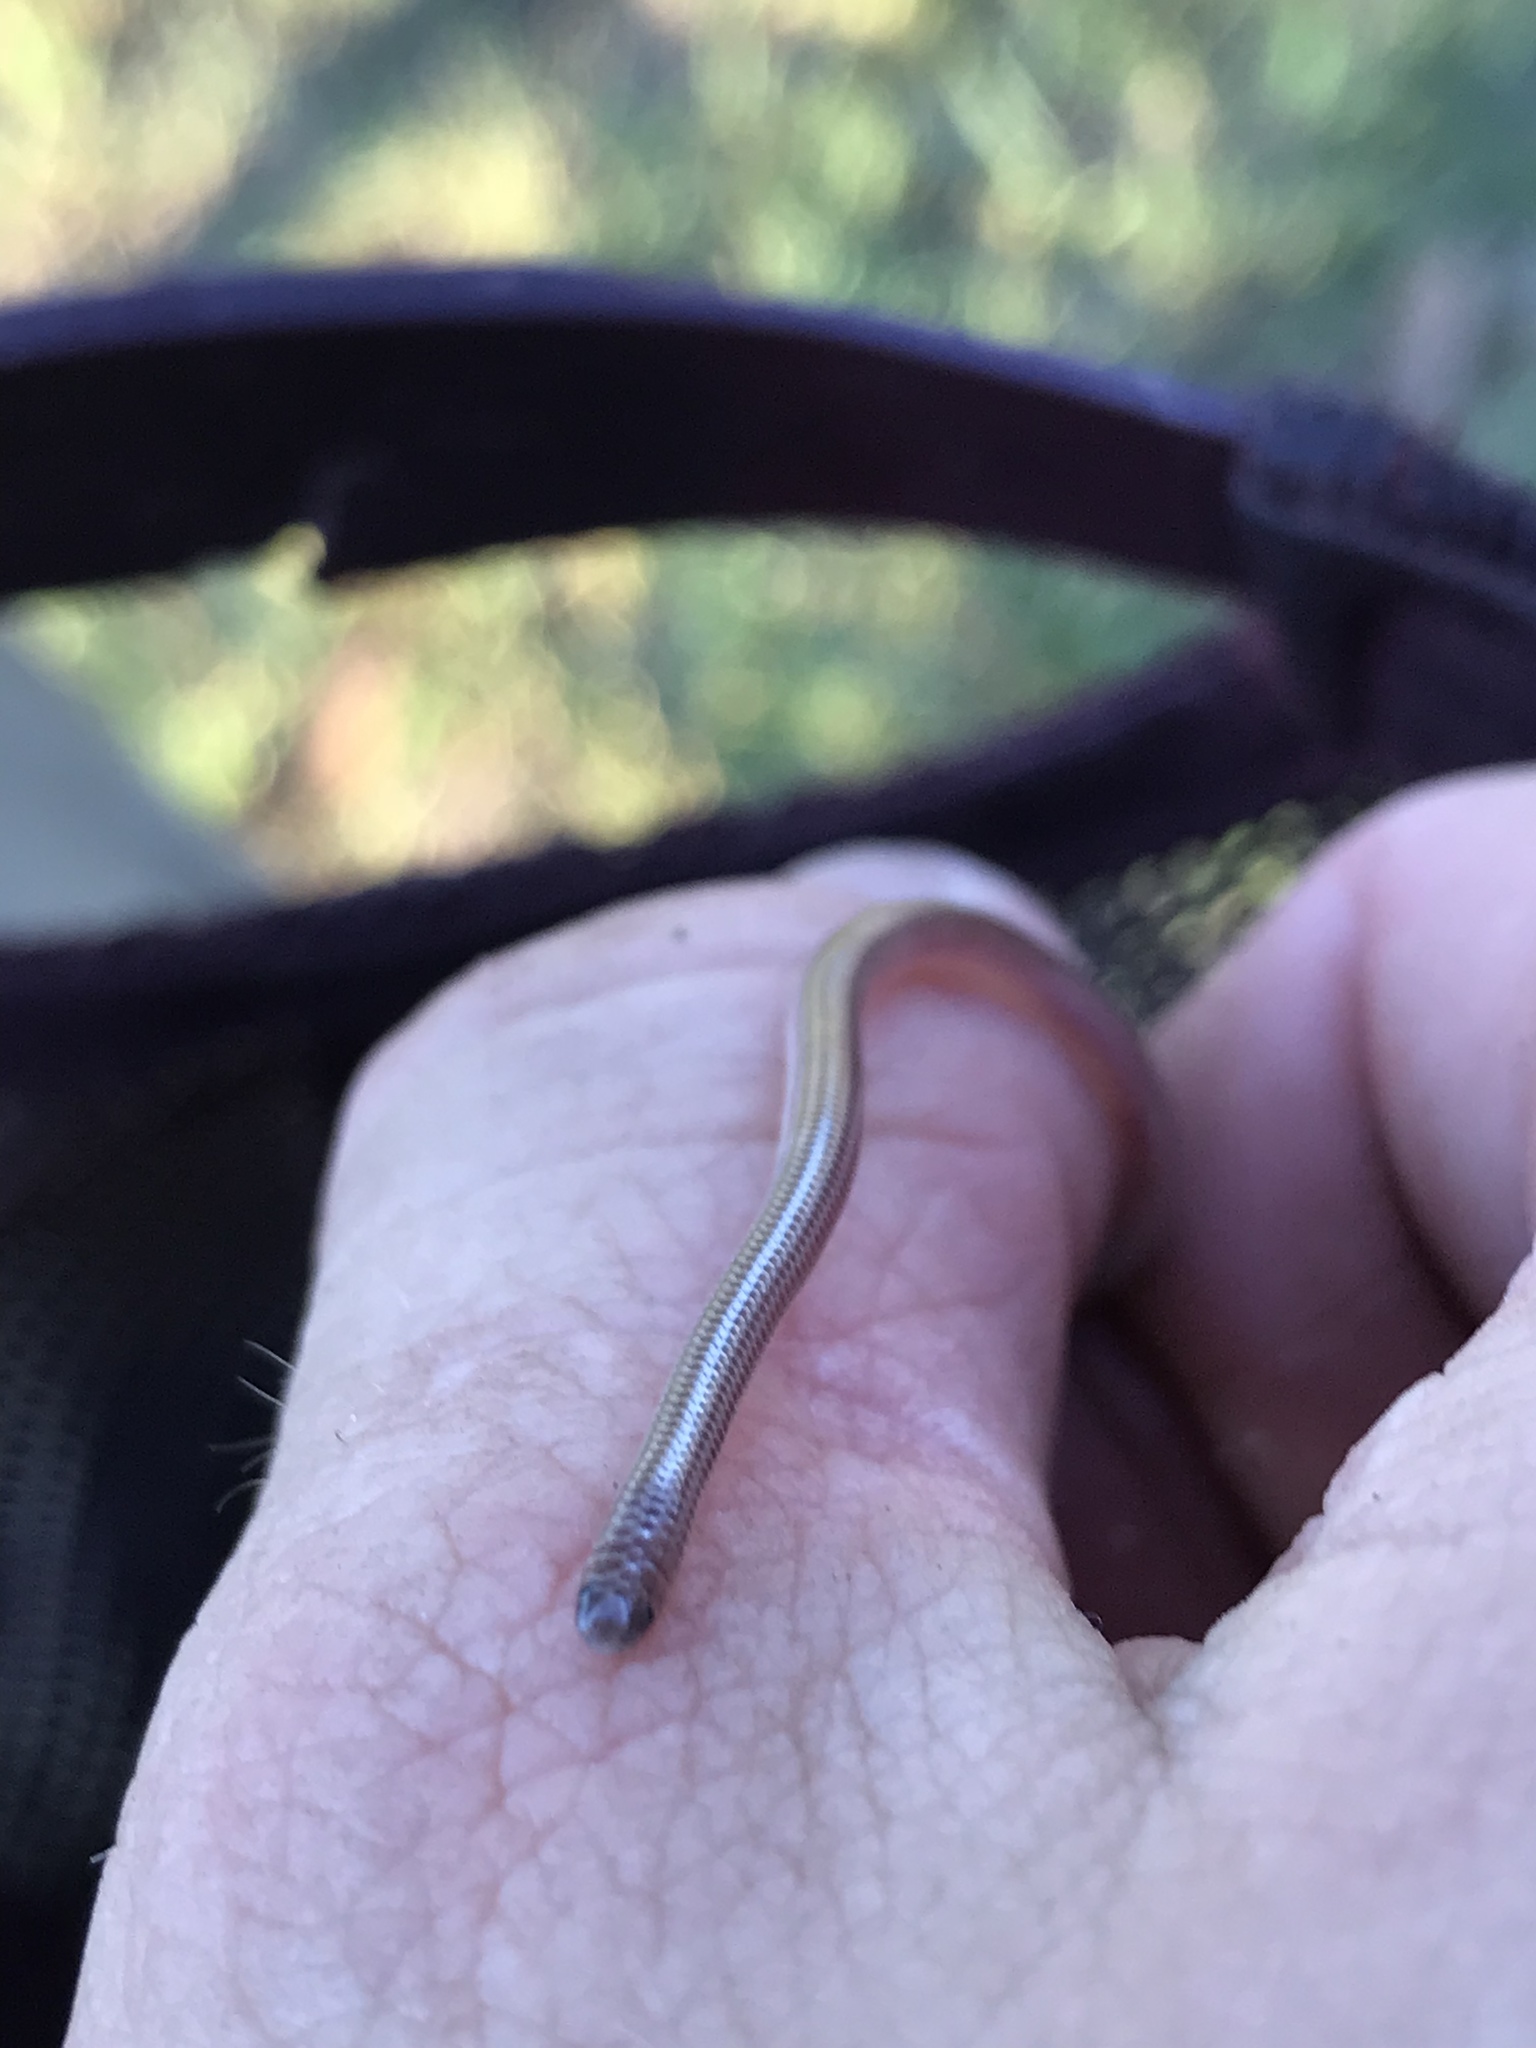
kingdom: Animalia
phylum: Chordata
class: Squamata
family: Leptotyphlopidae
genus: Rena
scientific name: Rena dulcis
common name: Texas blind snake
